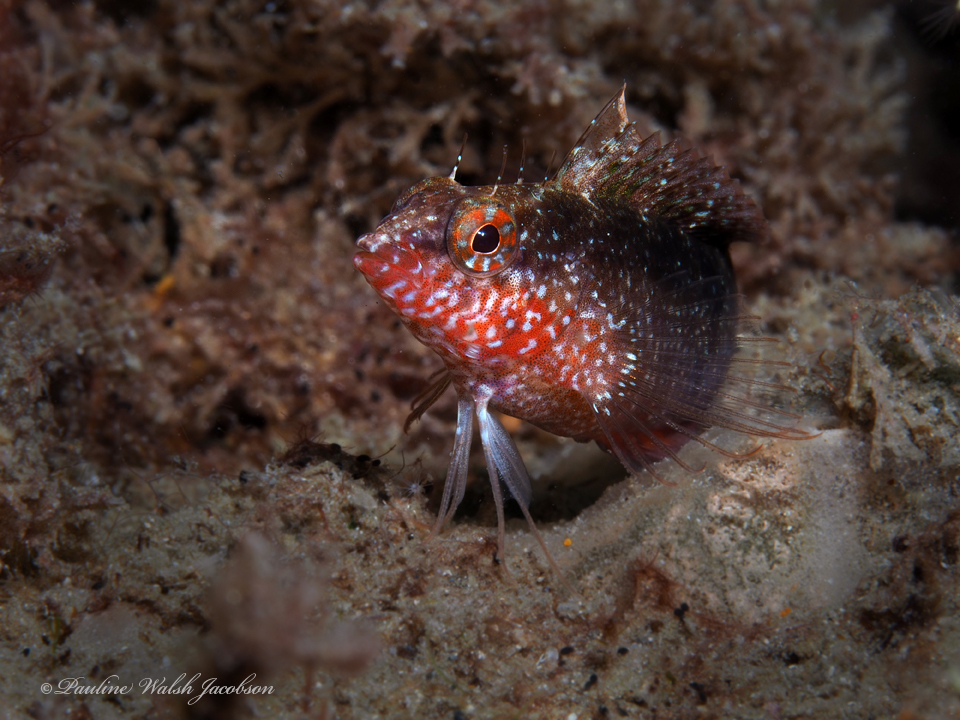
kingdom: Animalia
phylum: Chordata
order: Perciformes
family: Labrisomidae
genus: Malacoctenus
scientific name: Malacoctenus macropus
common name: Rosy blenny
